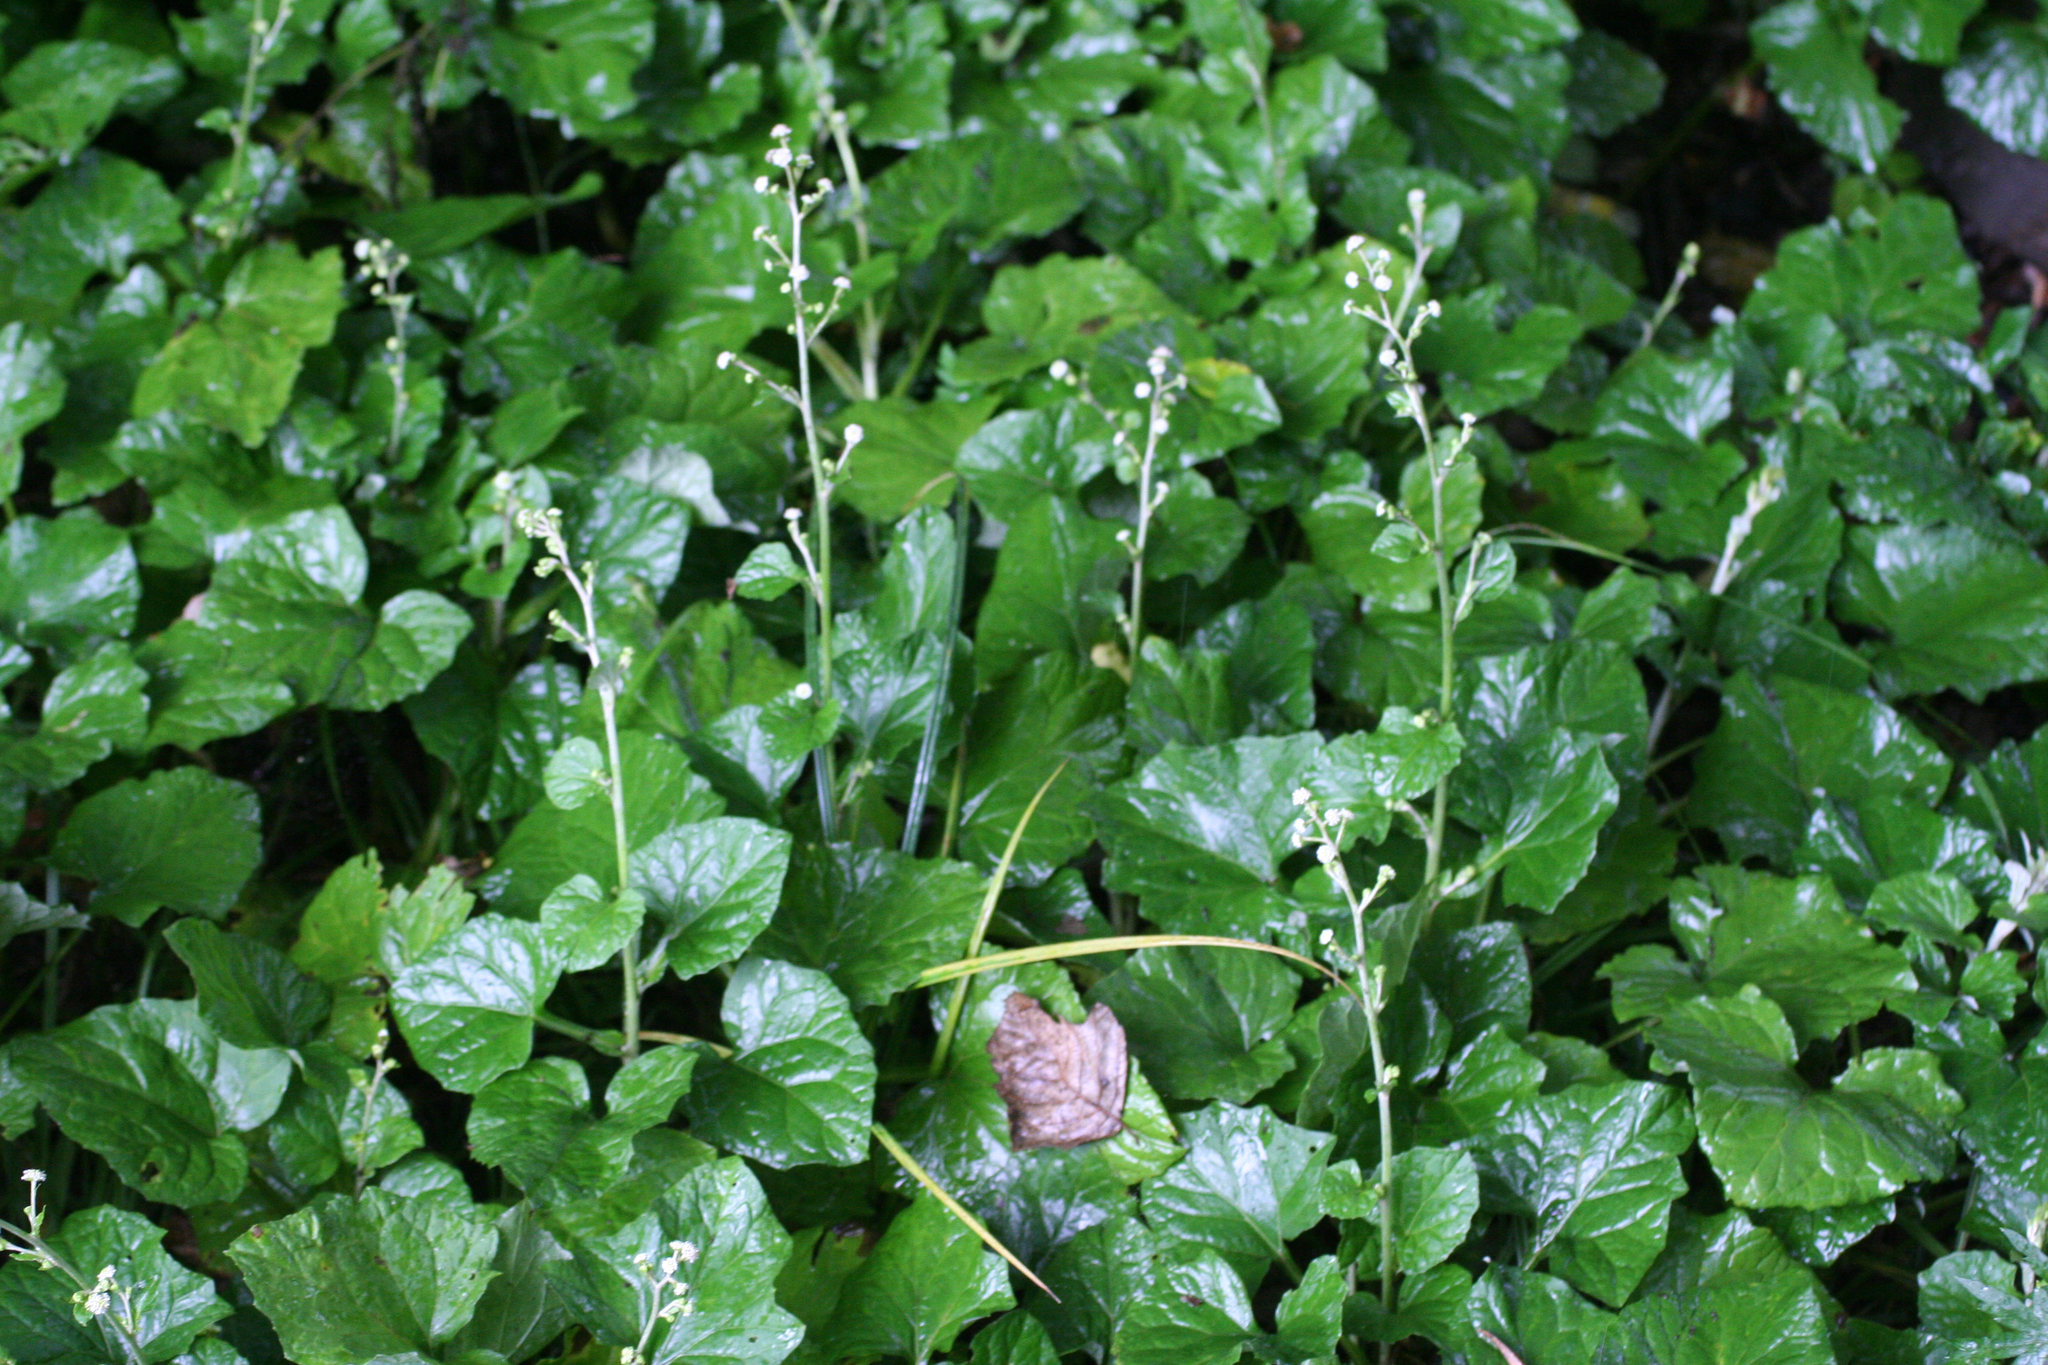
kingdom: Plantae
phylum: Tracheophyta
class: Magnoliopsida
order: Asterales
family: Asteraceae
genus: Adenocaulon
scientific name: Adenocaulon himalaicum
